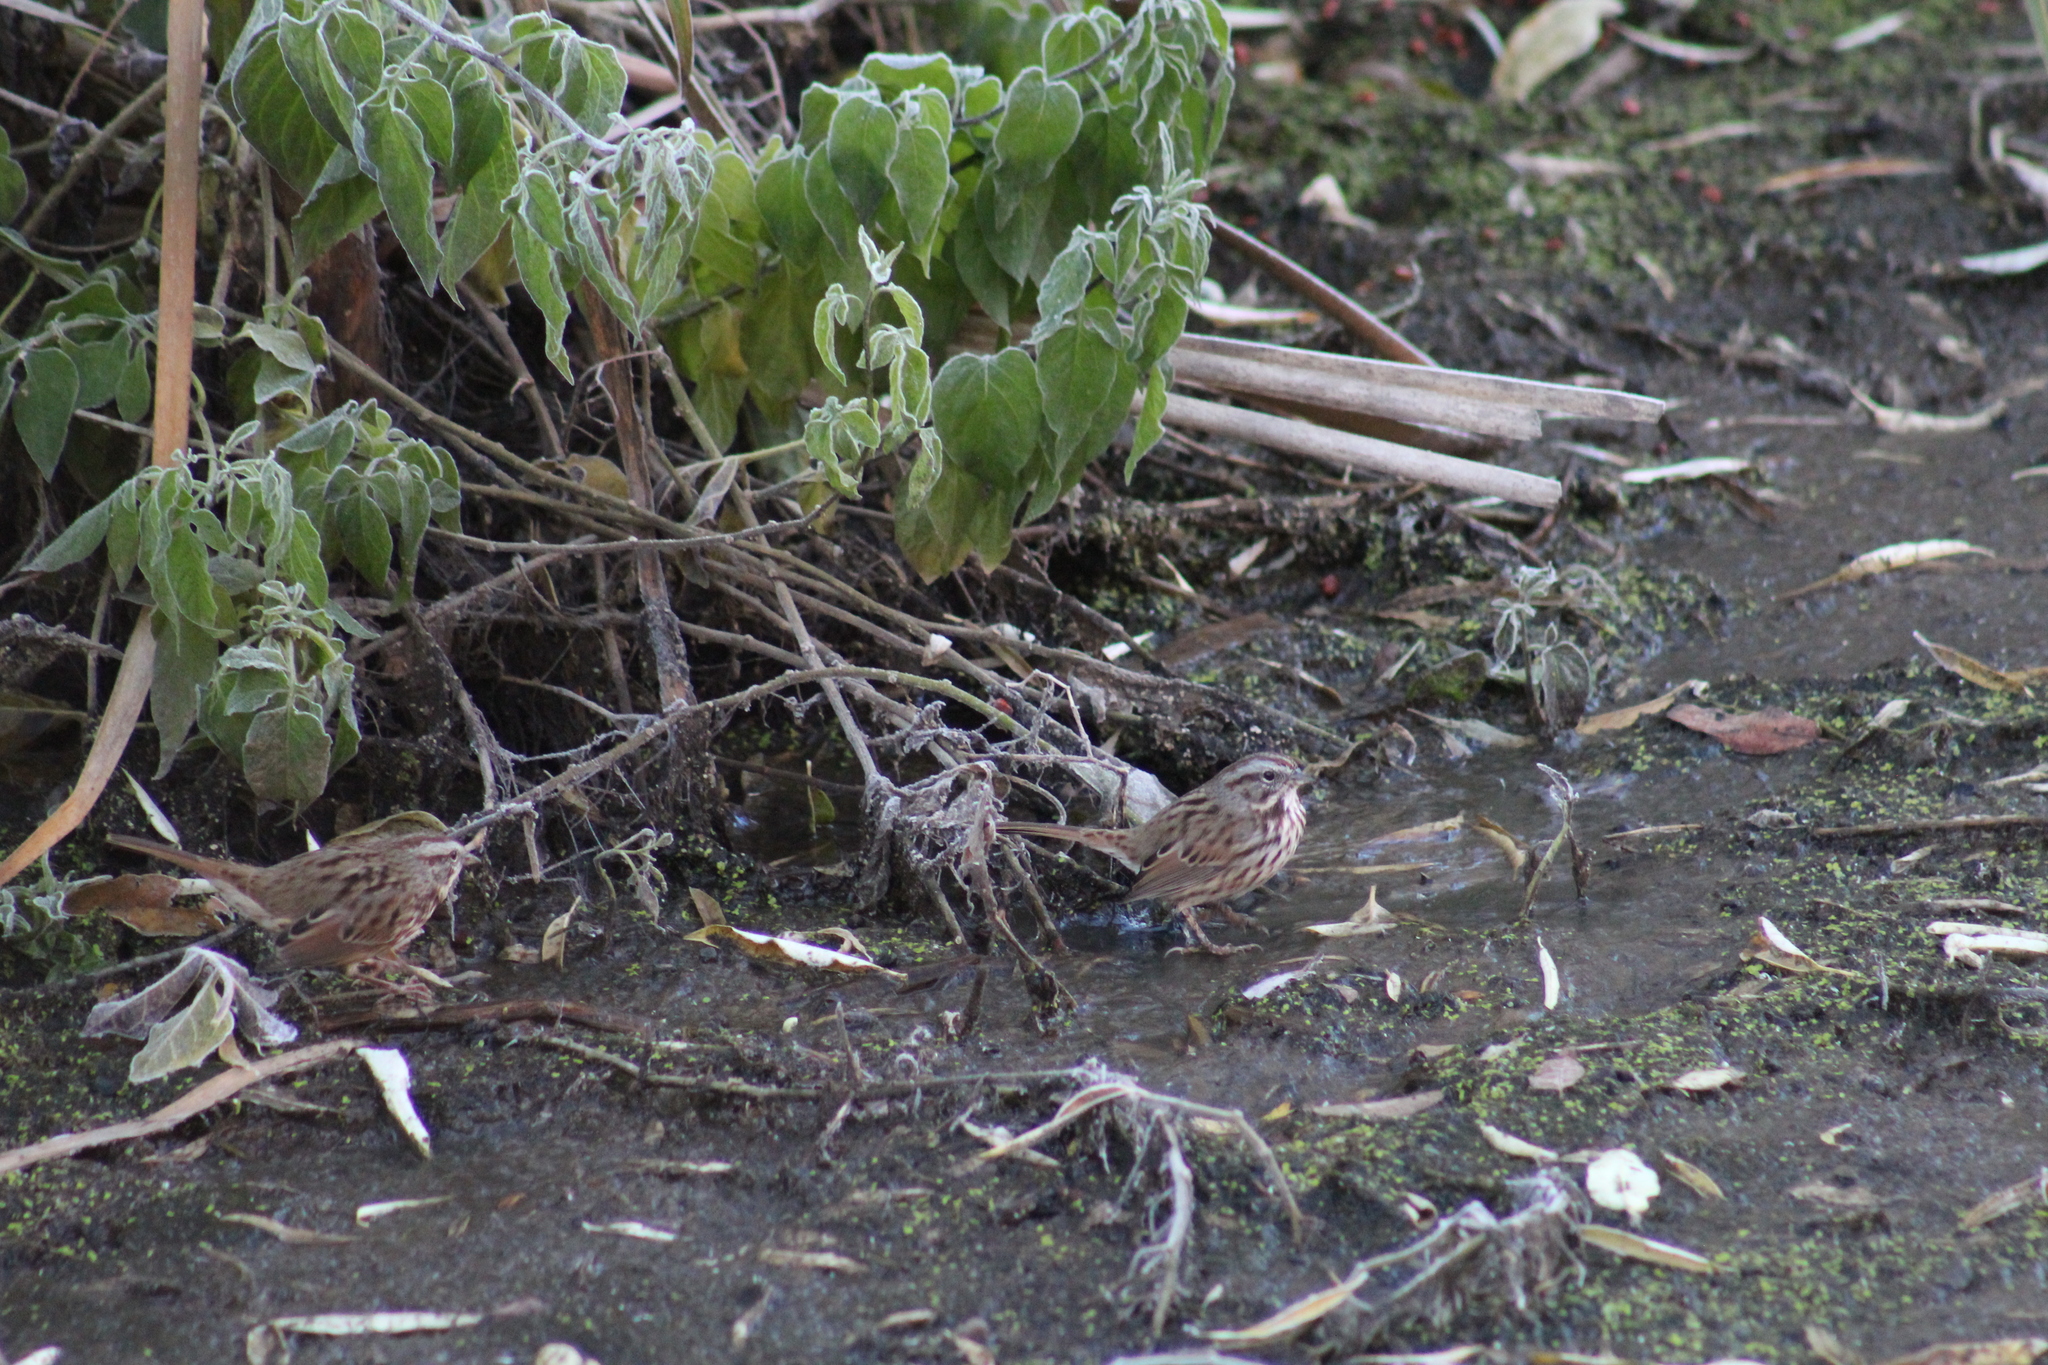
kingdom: Animalia
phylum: Chordata
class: Aves
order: Passeriformes
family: Passerellidae
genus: Melospiza
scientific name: Melospiza melodia
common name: Song sparrow
